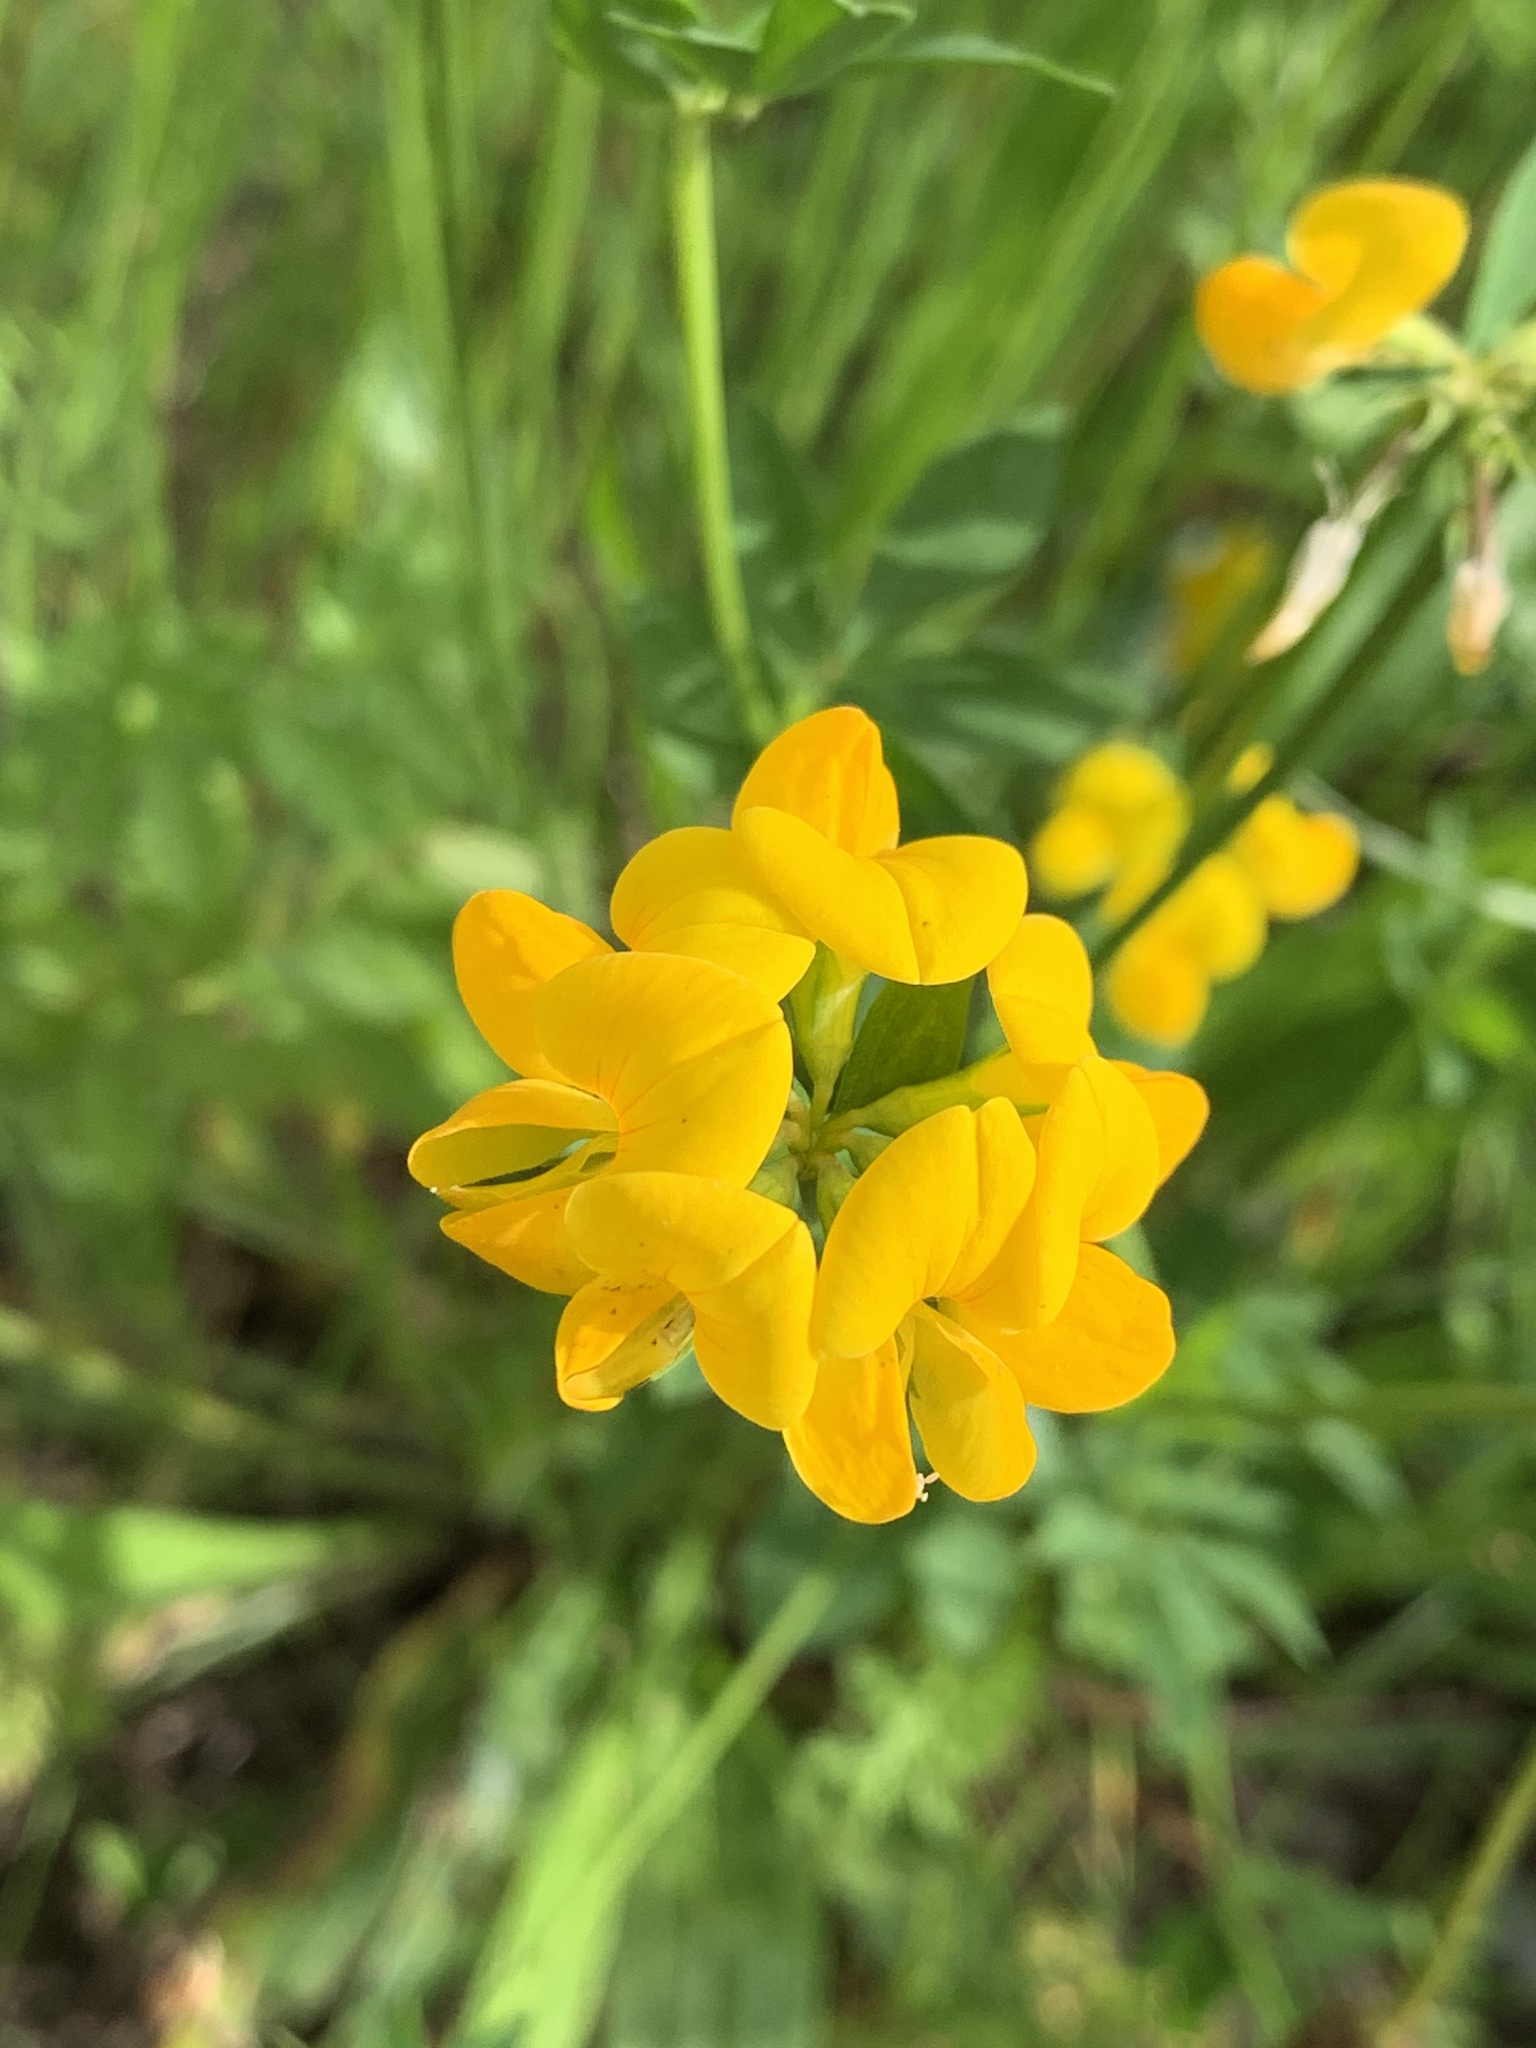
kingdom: Plantae
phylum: Tracheophyta
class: Magnoliopsida
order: Fabales
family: Fabaceae
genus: Lotus
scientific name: Lotus corniculatus
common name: Common bird's-foot-trefoil
